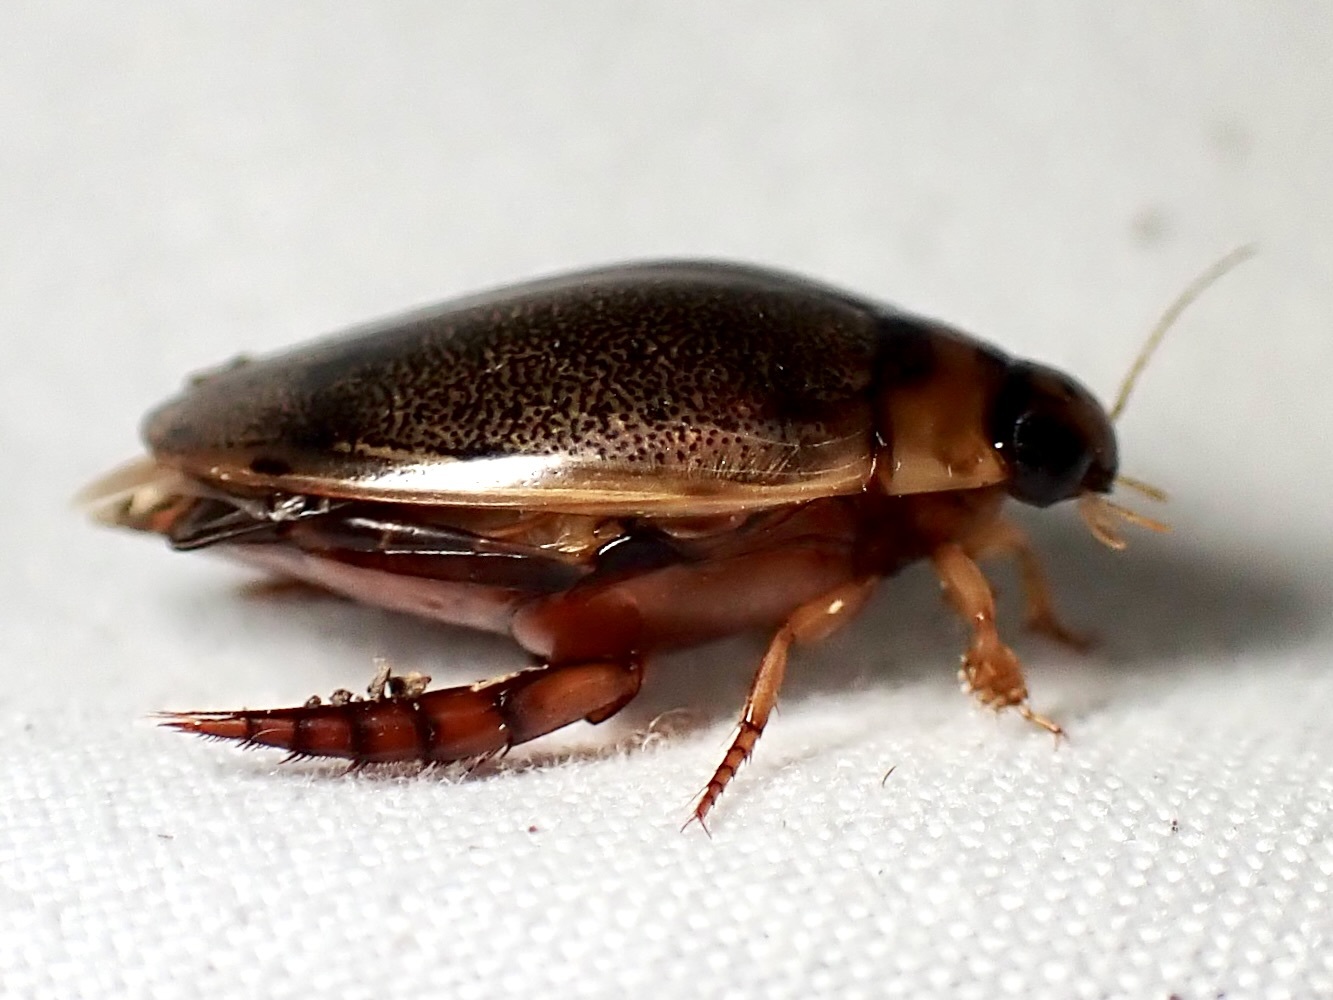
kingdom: Animalia
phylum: Arthropoda
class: Insecta
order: Coleoptera
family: Dytiscidae
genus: Thermonectus
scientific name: Thermonectus sibleyi
